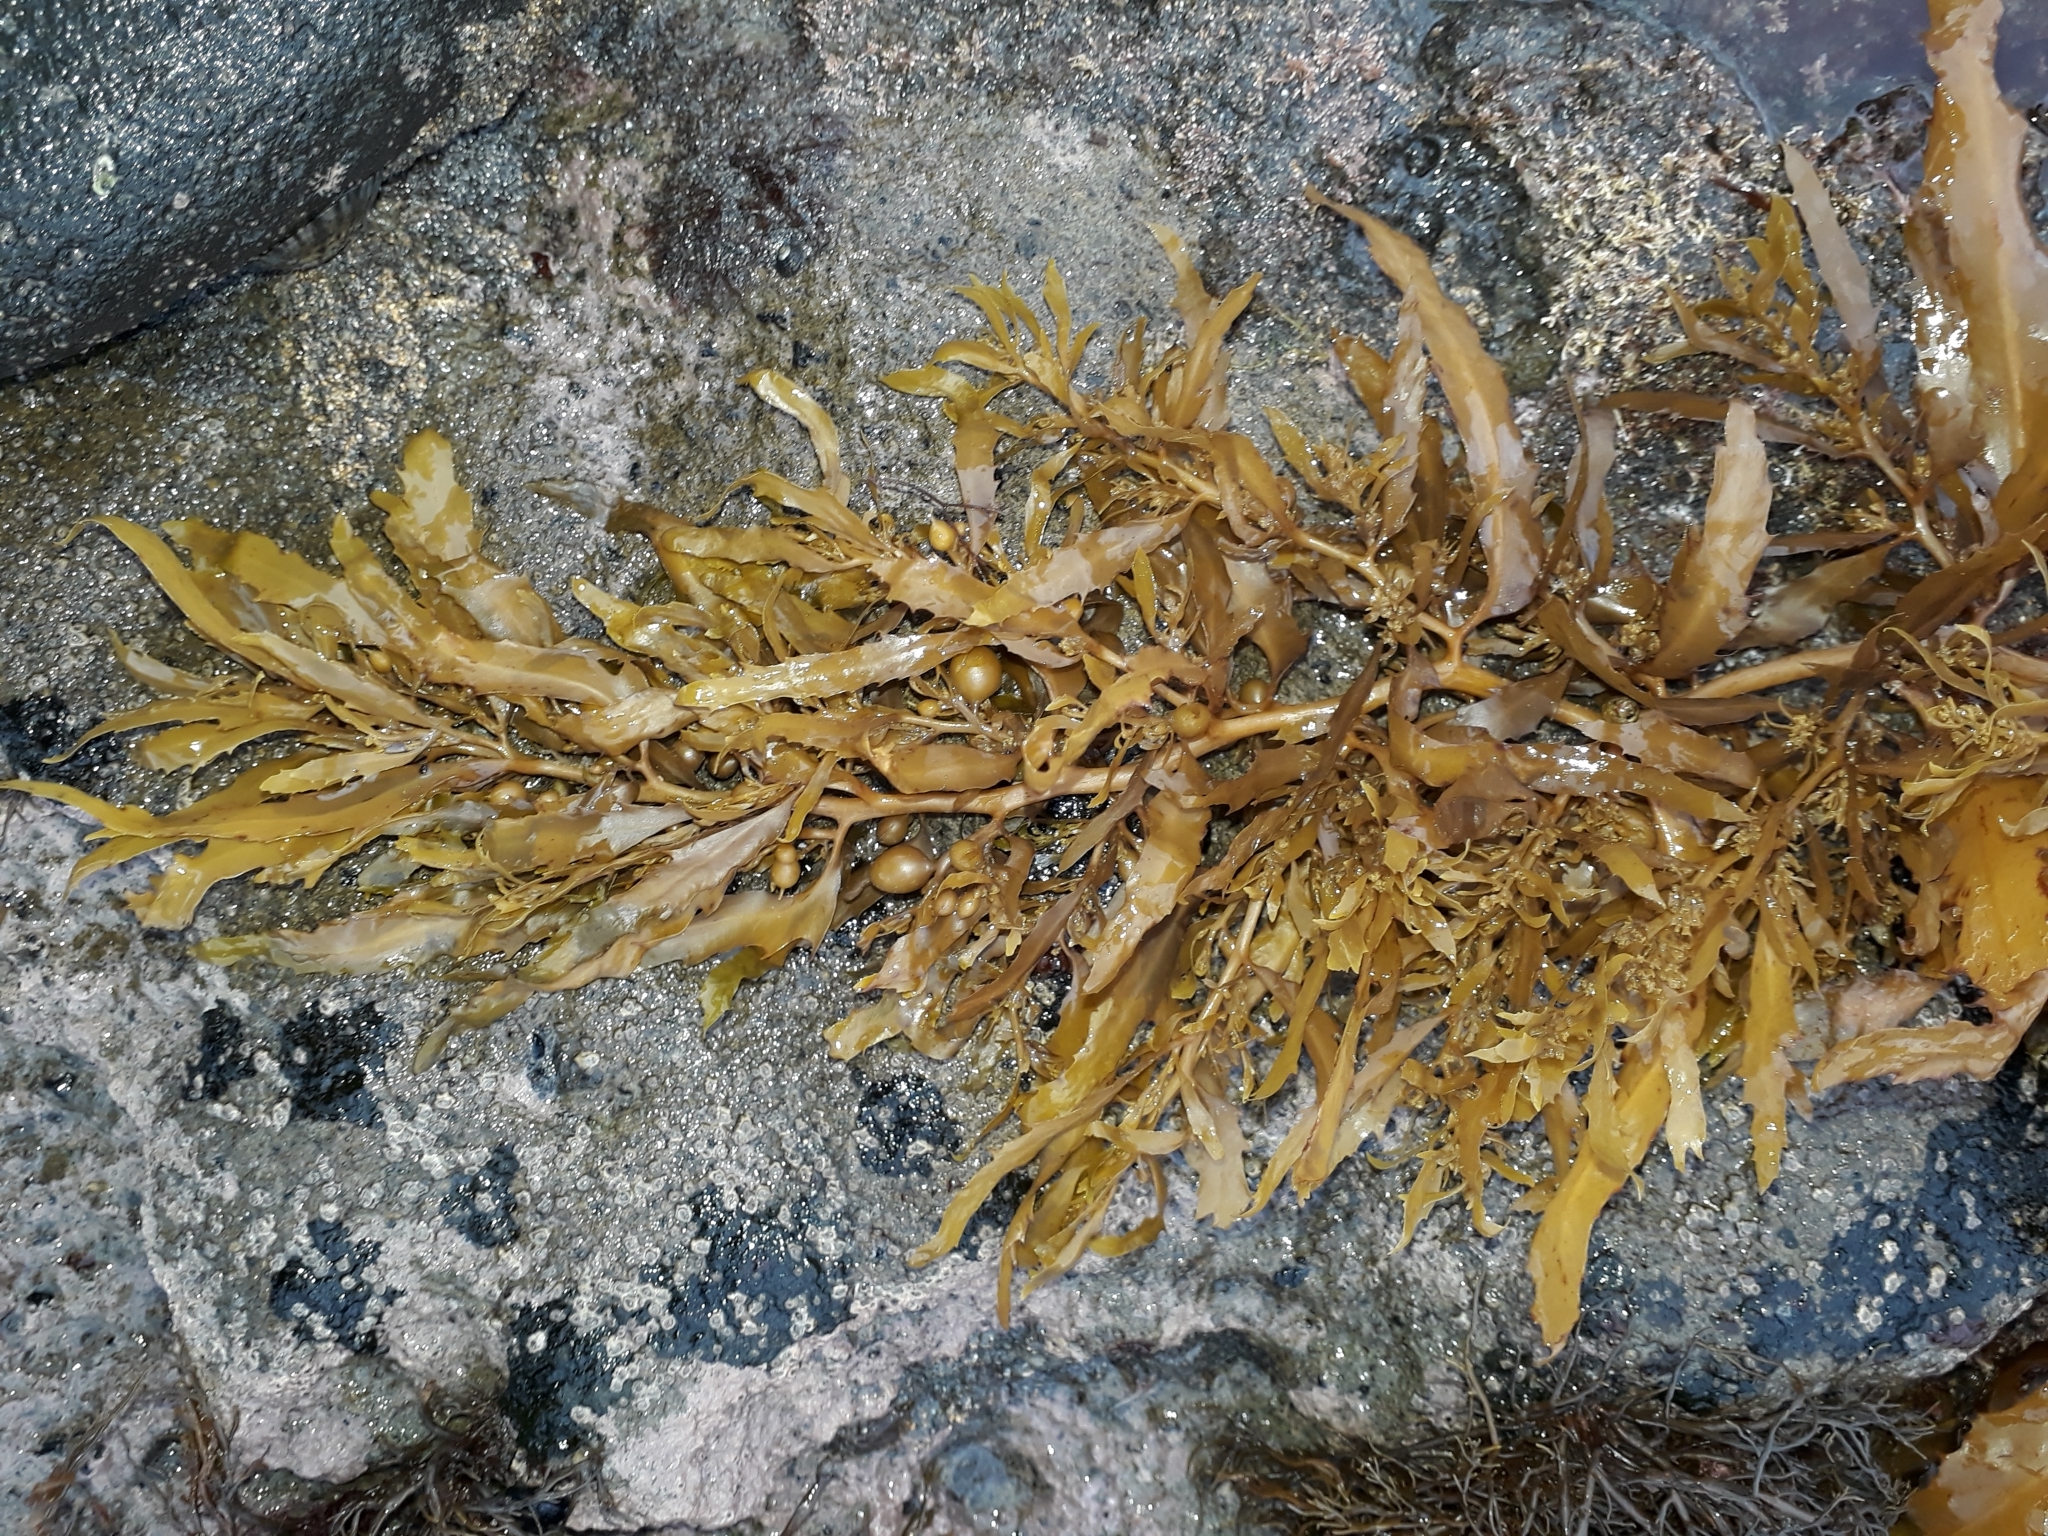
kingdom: Chromista
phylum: Ochrophyta
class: Phaeophyceae
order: Fucales
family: Sargassaceae
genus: Sargassum
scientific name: Sargassum sinclairii
